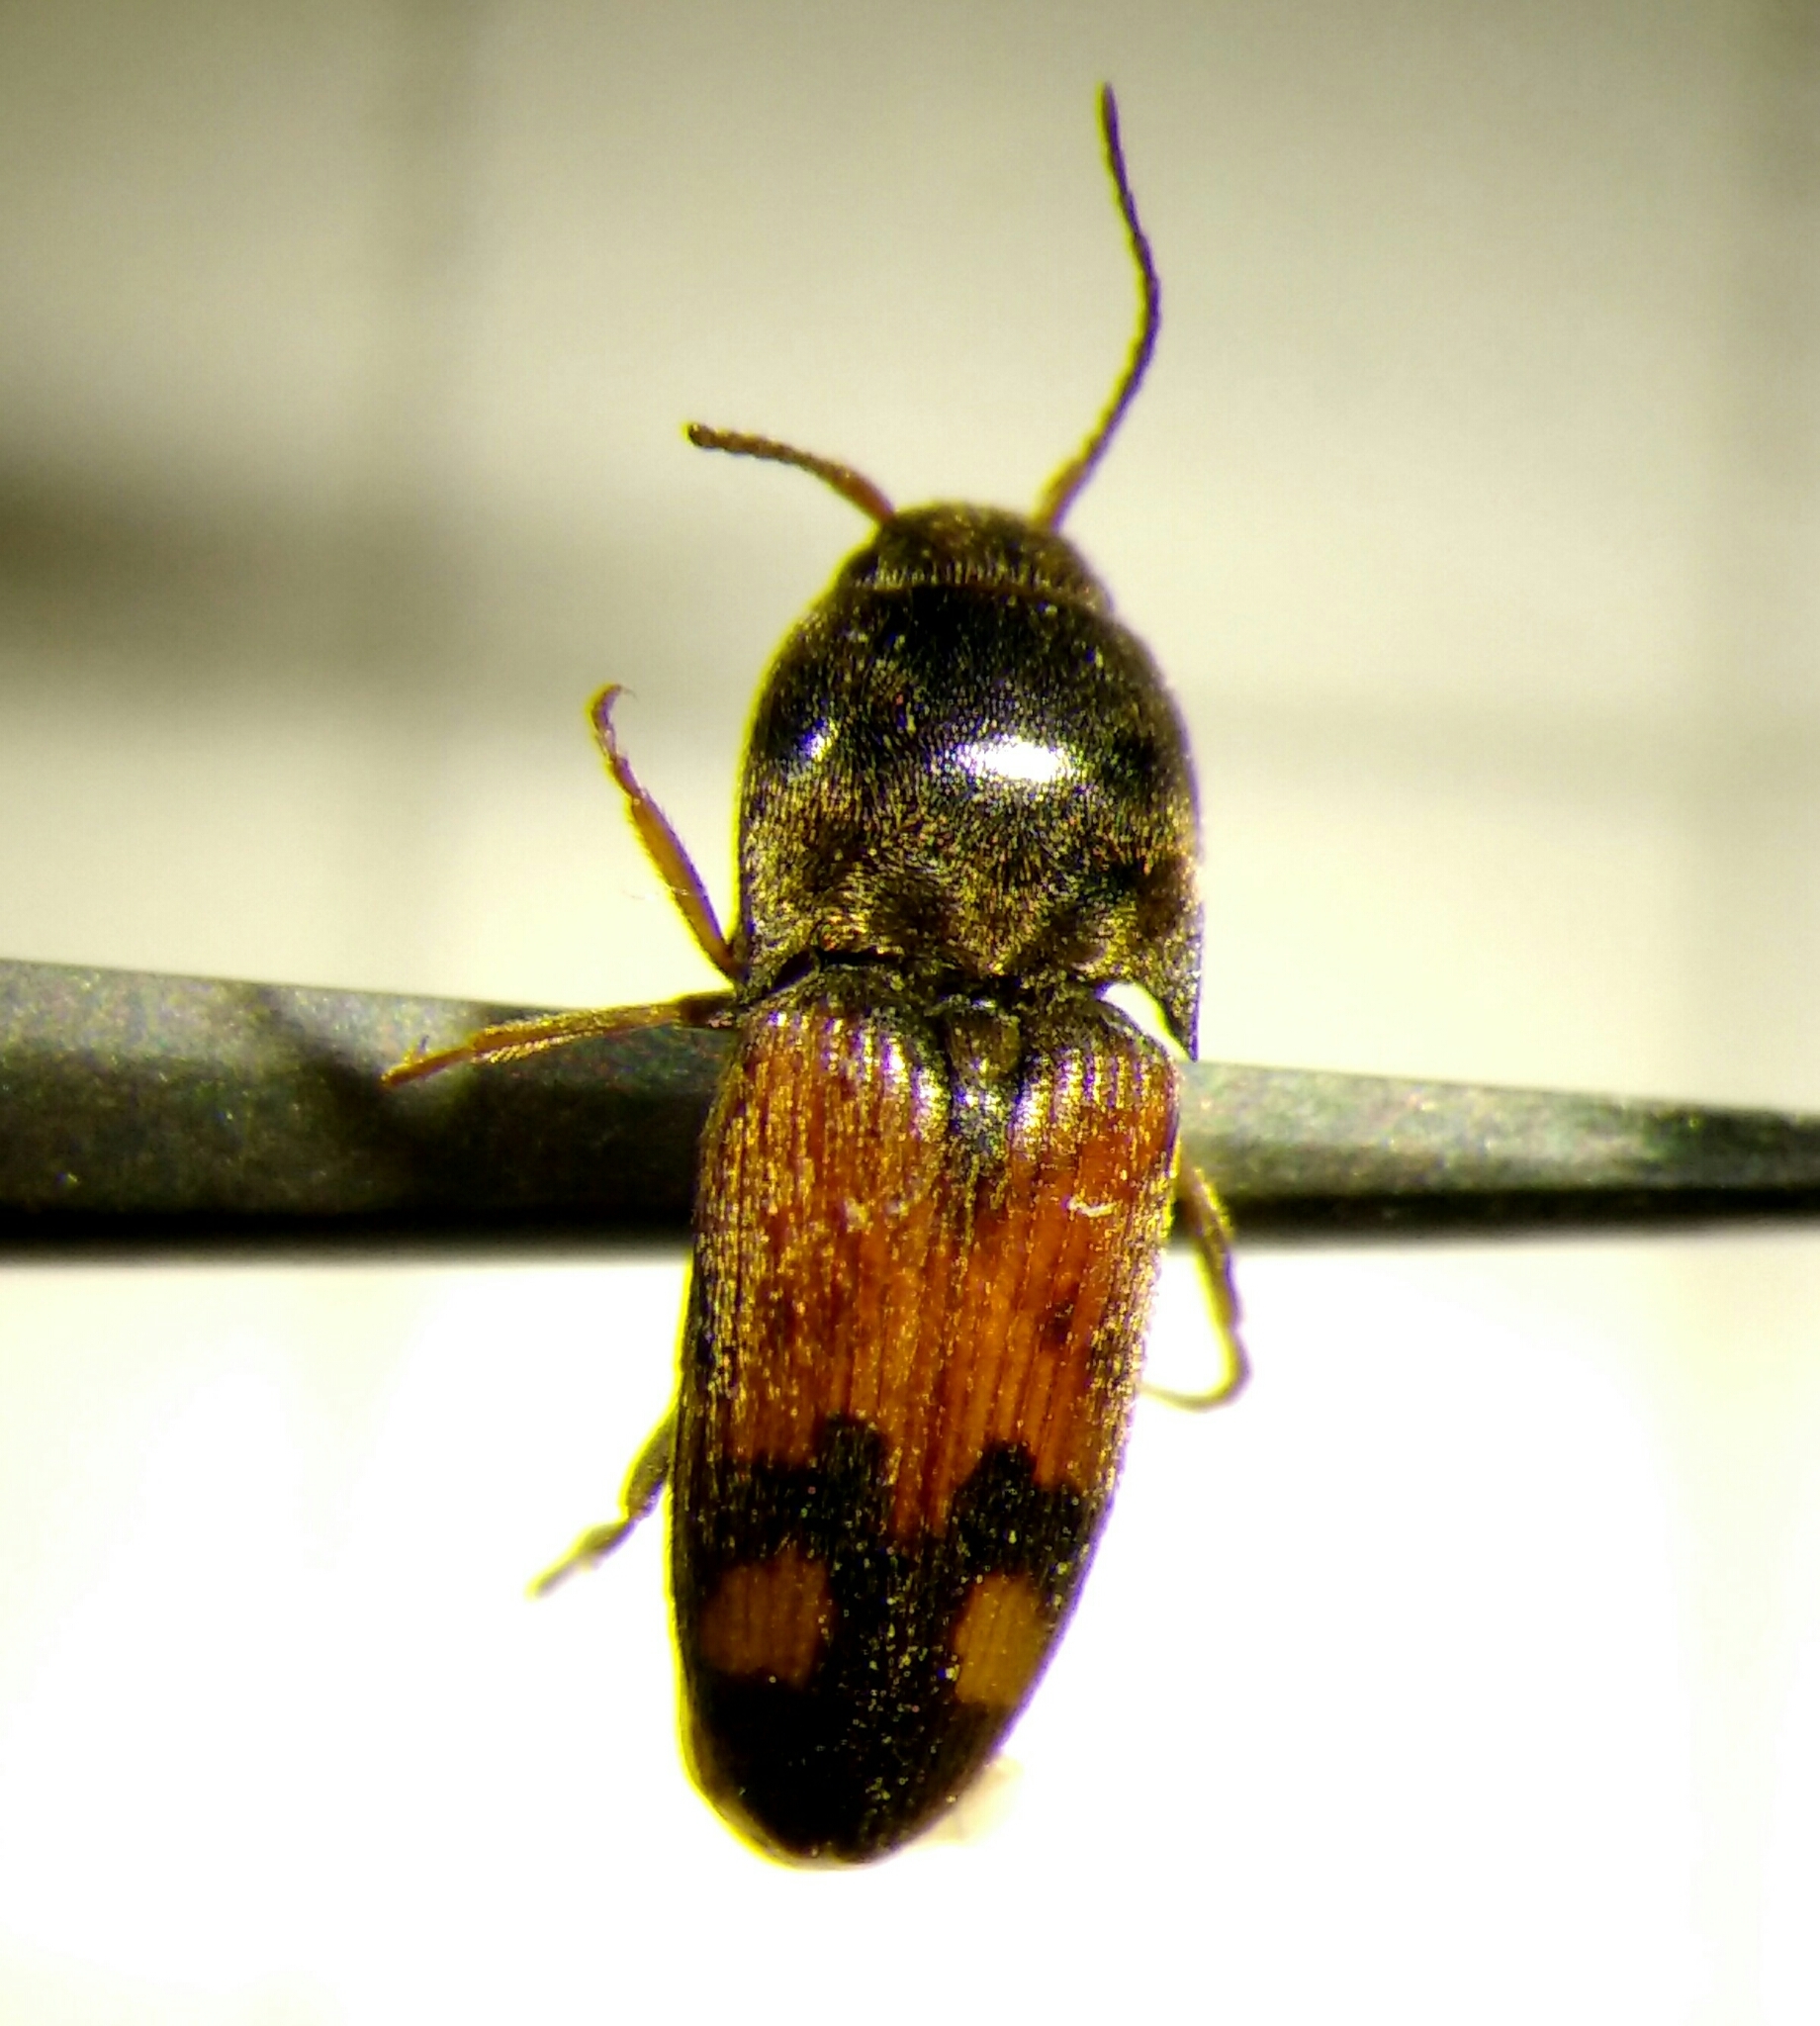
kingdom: Animalia
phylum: Arthropoda
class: Insecta
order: Coleoptera
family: Elateridae
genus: Drasterius
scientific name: Drasterius bimaculatus
